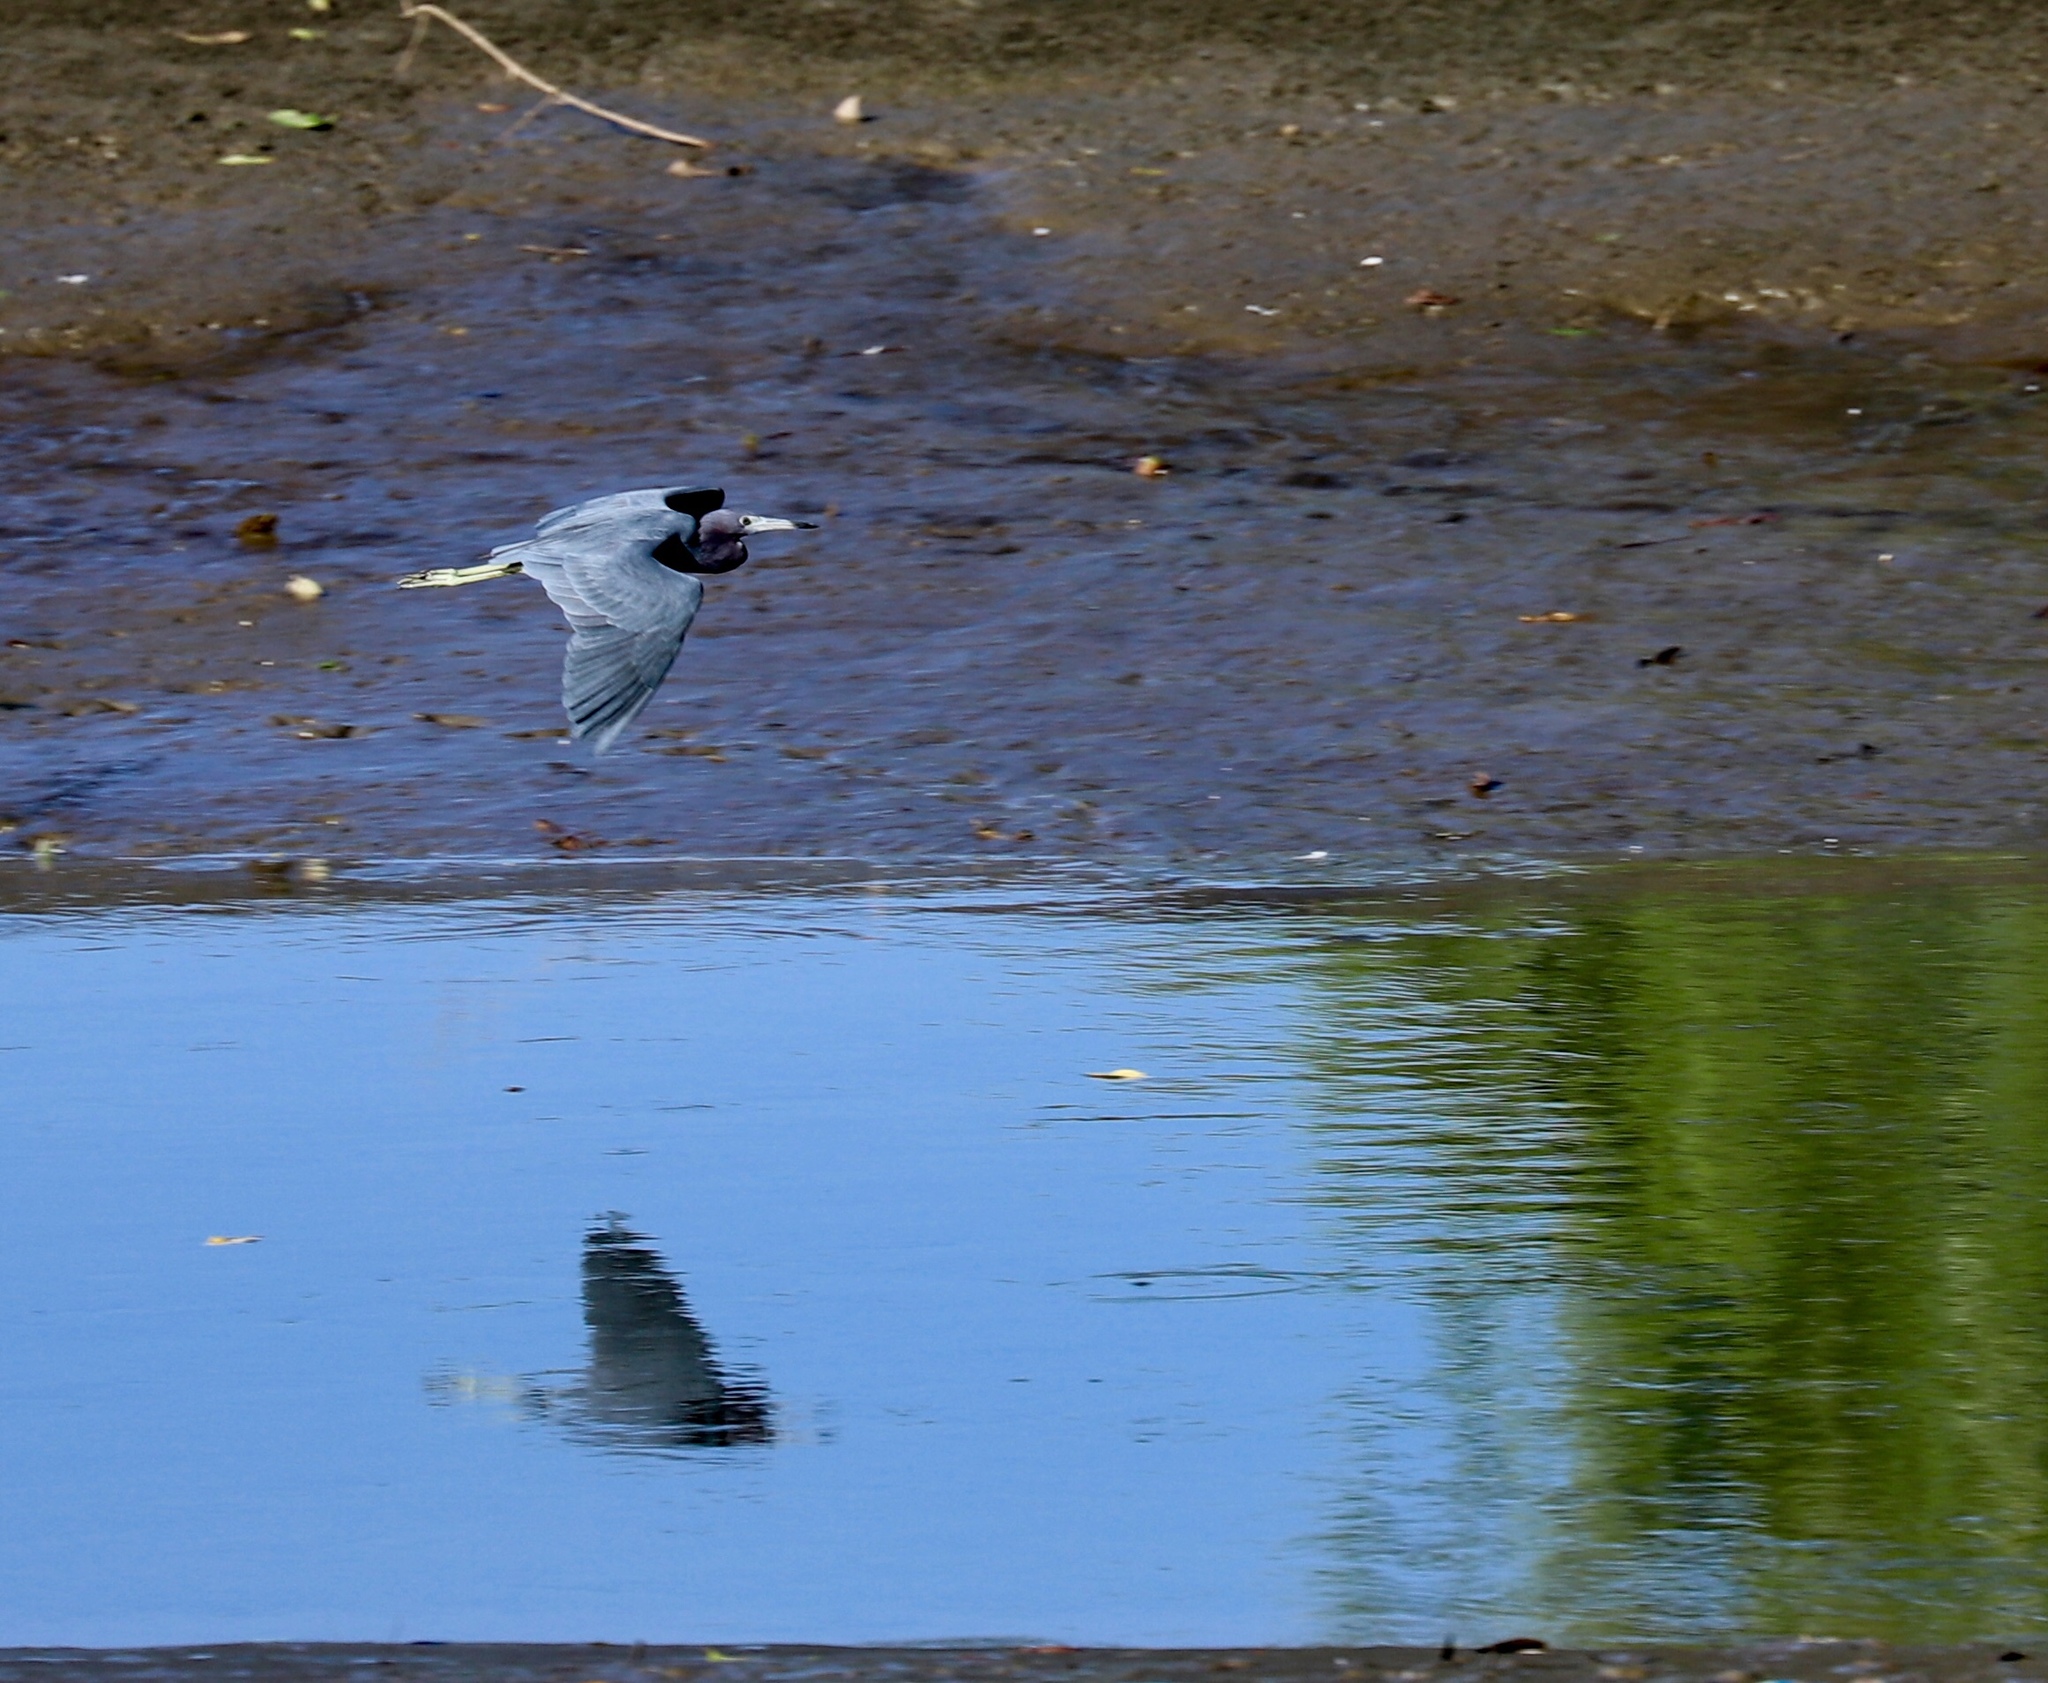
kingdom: Animalia
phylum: Chordata
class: Aves
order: Pelecaniformes
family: Ardeidae
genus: Egretta
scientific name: Egretta caerulea
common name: Little blue heron
